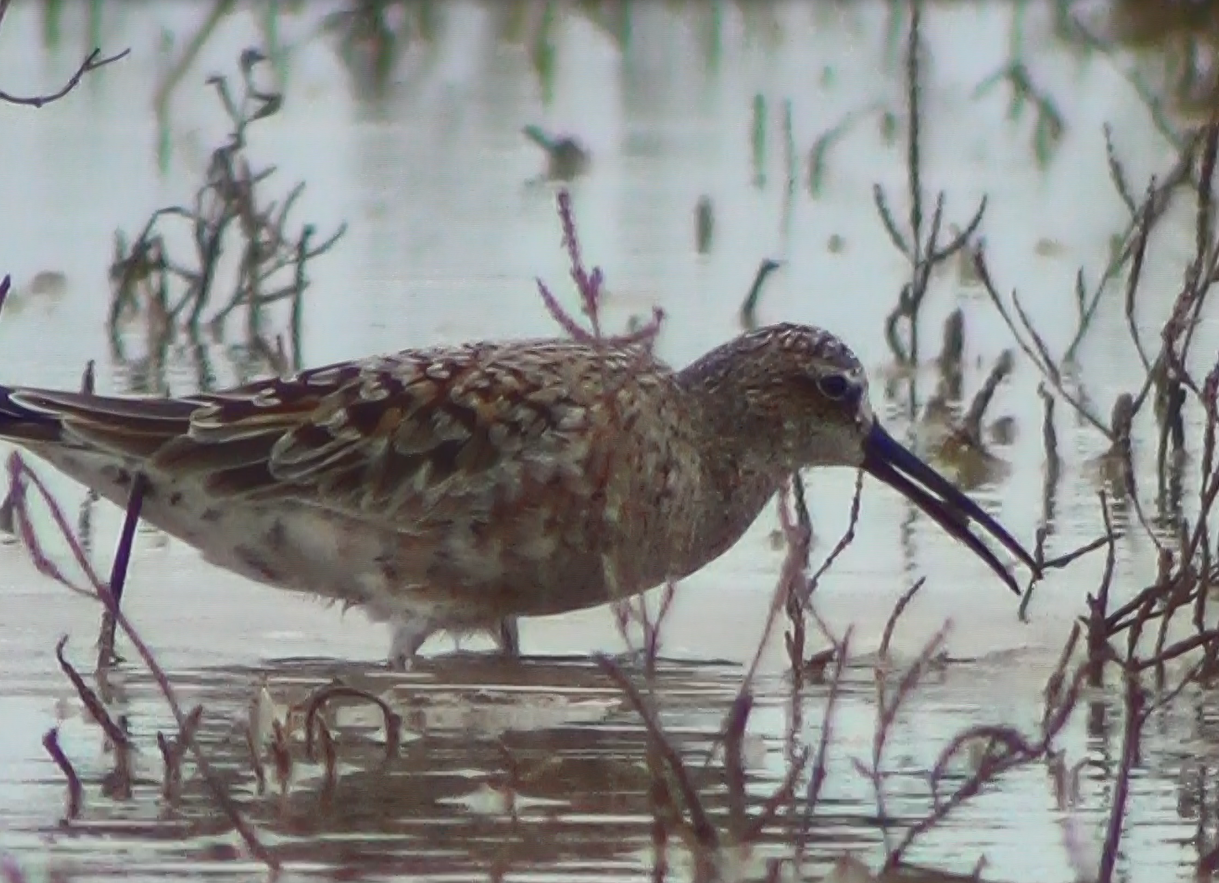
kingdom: Animalia
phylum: Chordata
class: Aves
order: Charadriiformes
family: Scolopacidae
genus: Calidris
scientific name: Calidris ferruginea
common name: Curlew sandpiper
